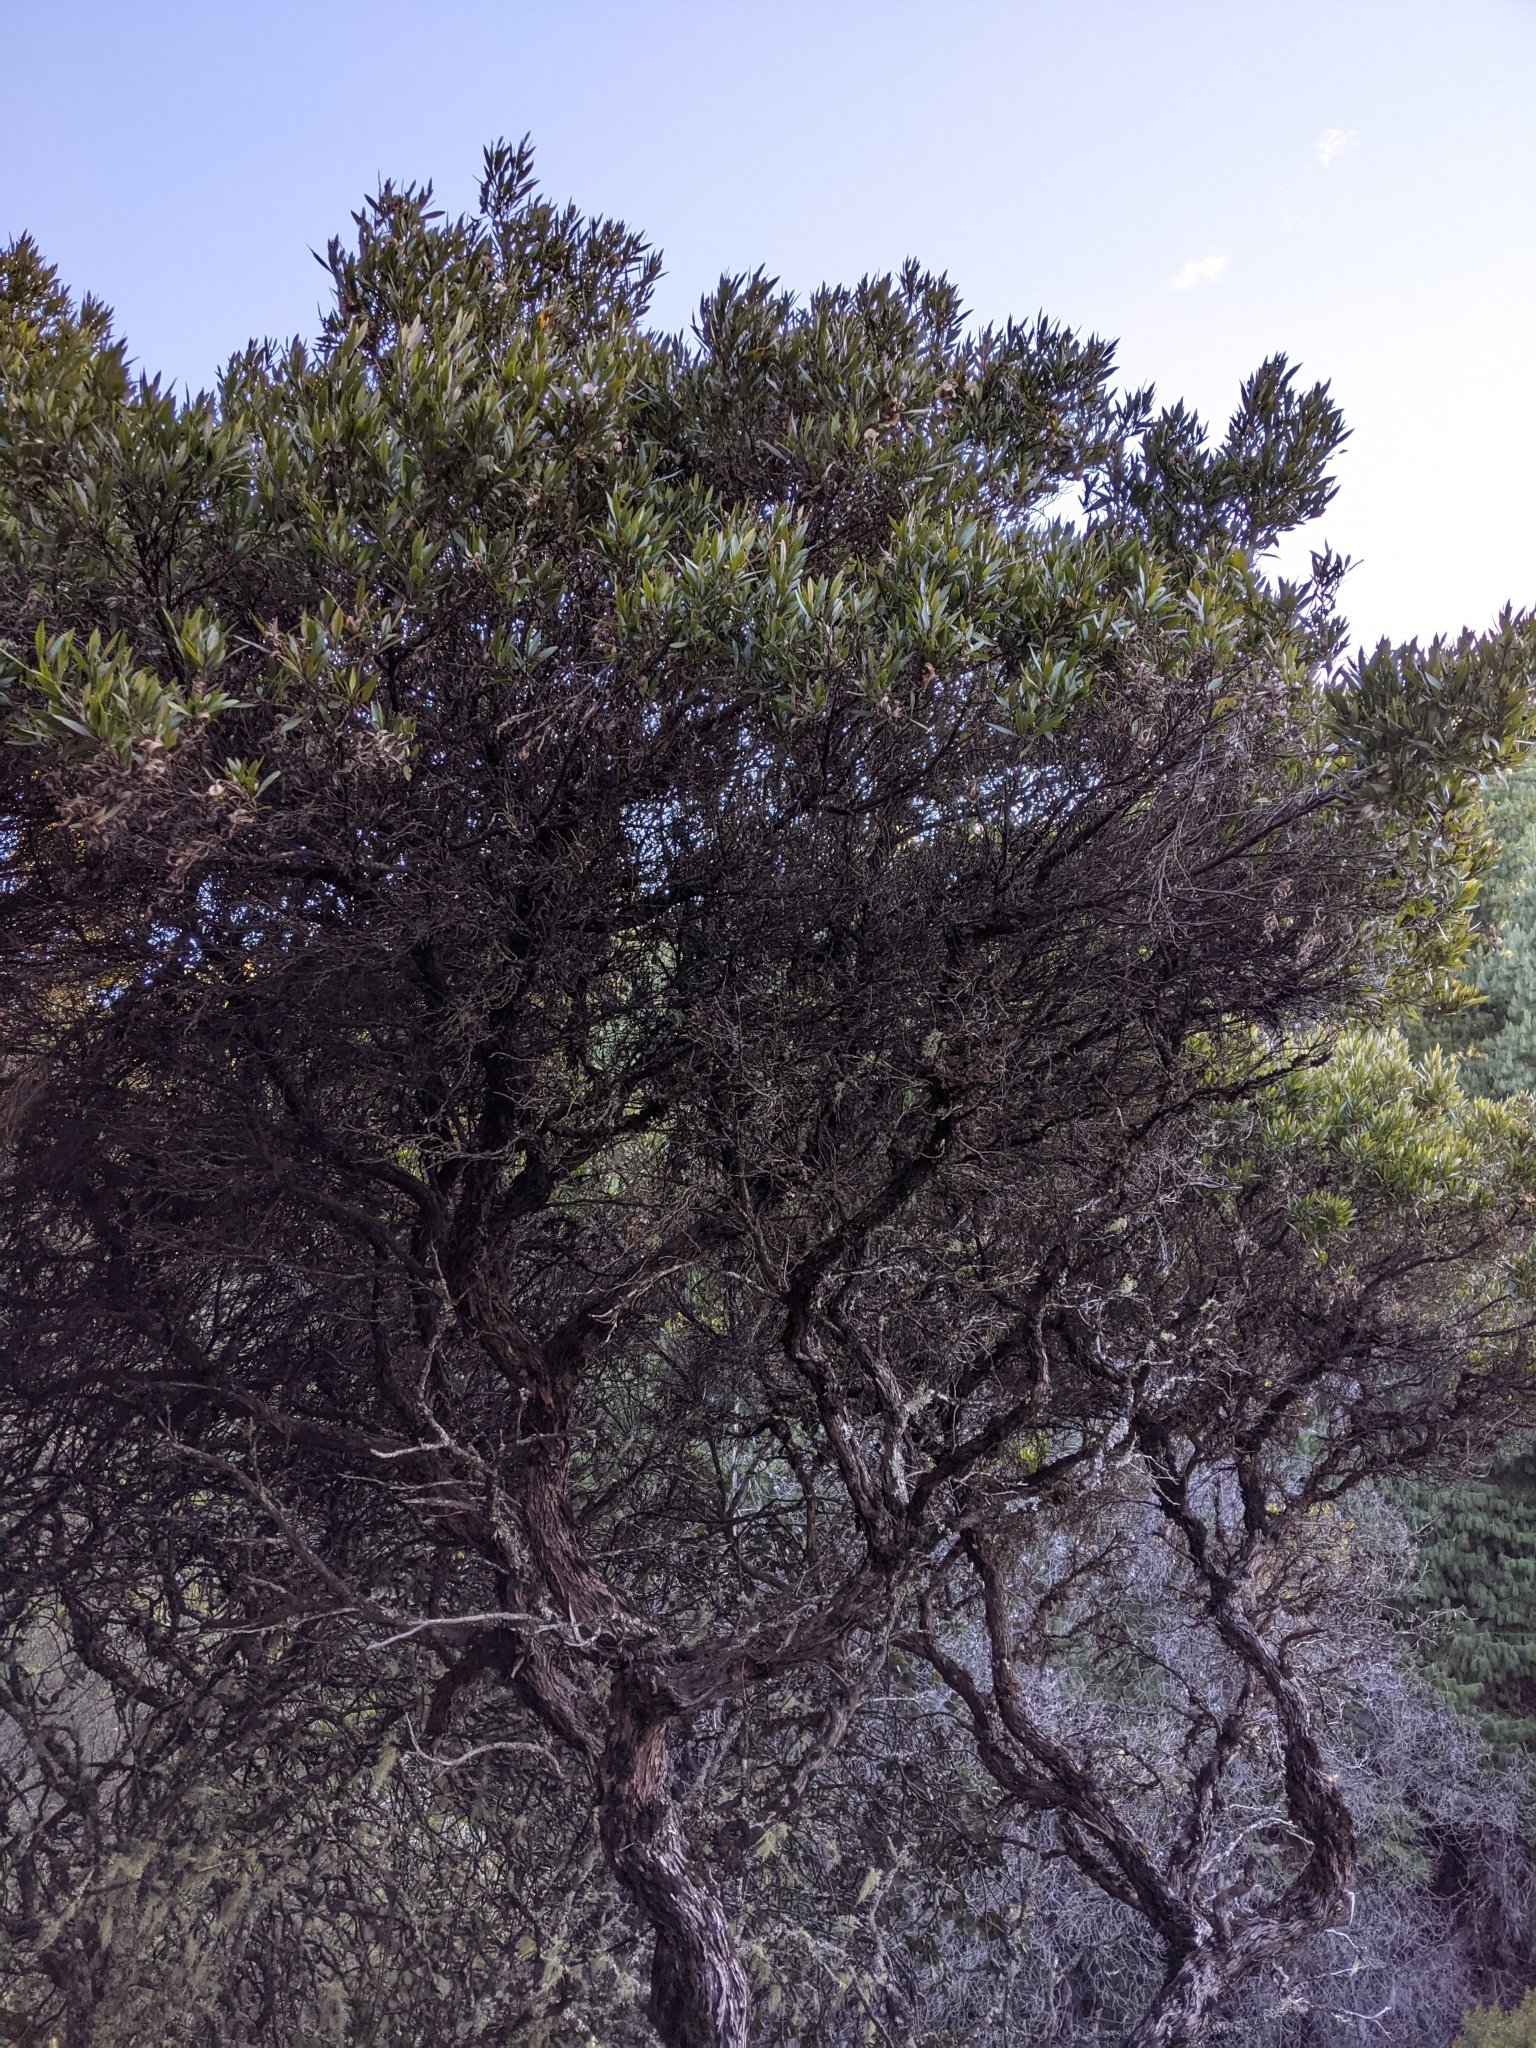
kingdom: Plantae
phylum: Tracheophyta
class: Magnoliopsida
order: Sapindales
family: Sapindaceae
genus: Dodonaea
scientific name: Dodonaea viscosa
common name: Hopbush
